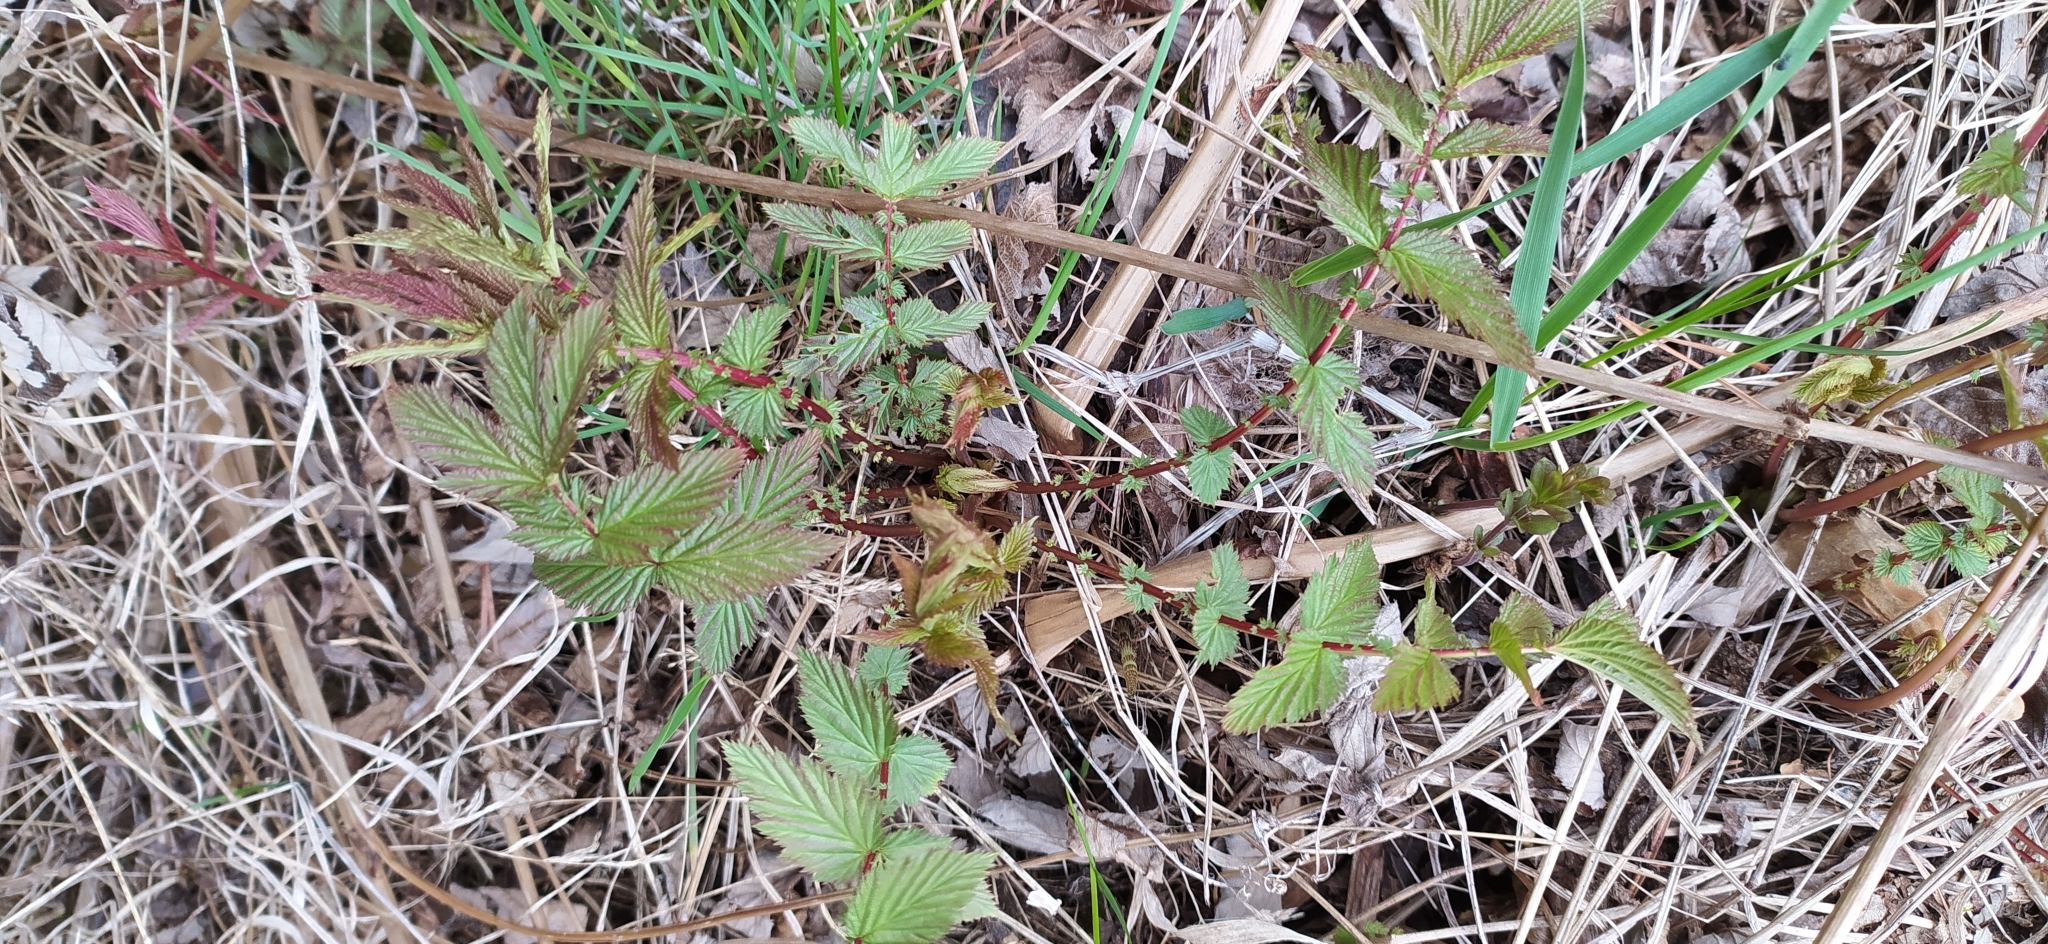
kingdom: Plantae
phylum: Tracheophyta
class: Magnoliopsida
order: Rosales
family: Rosaceae
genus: Filipendula
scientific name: Filipendula ulmaria
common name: Meadowsweet
